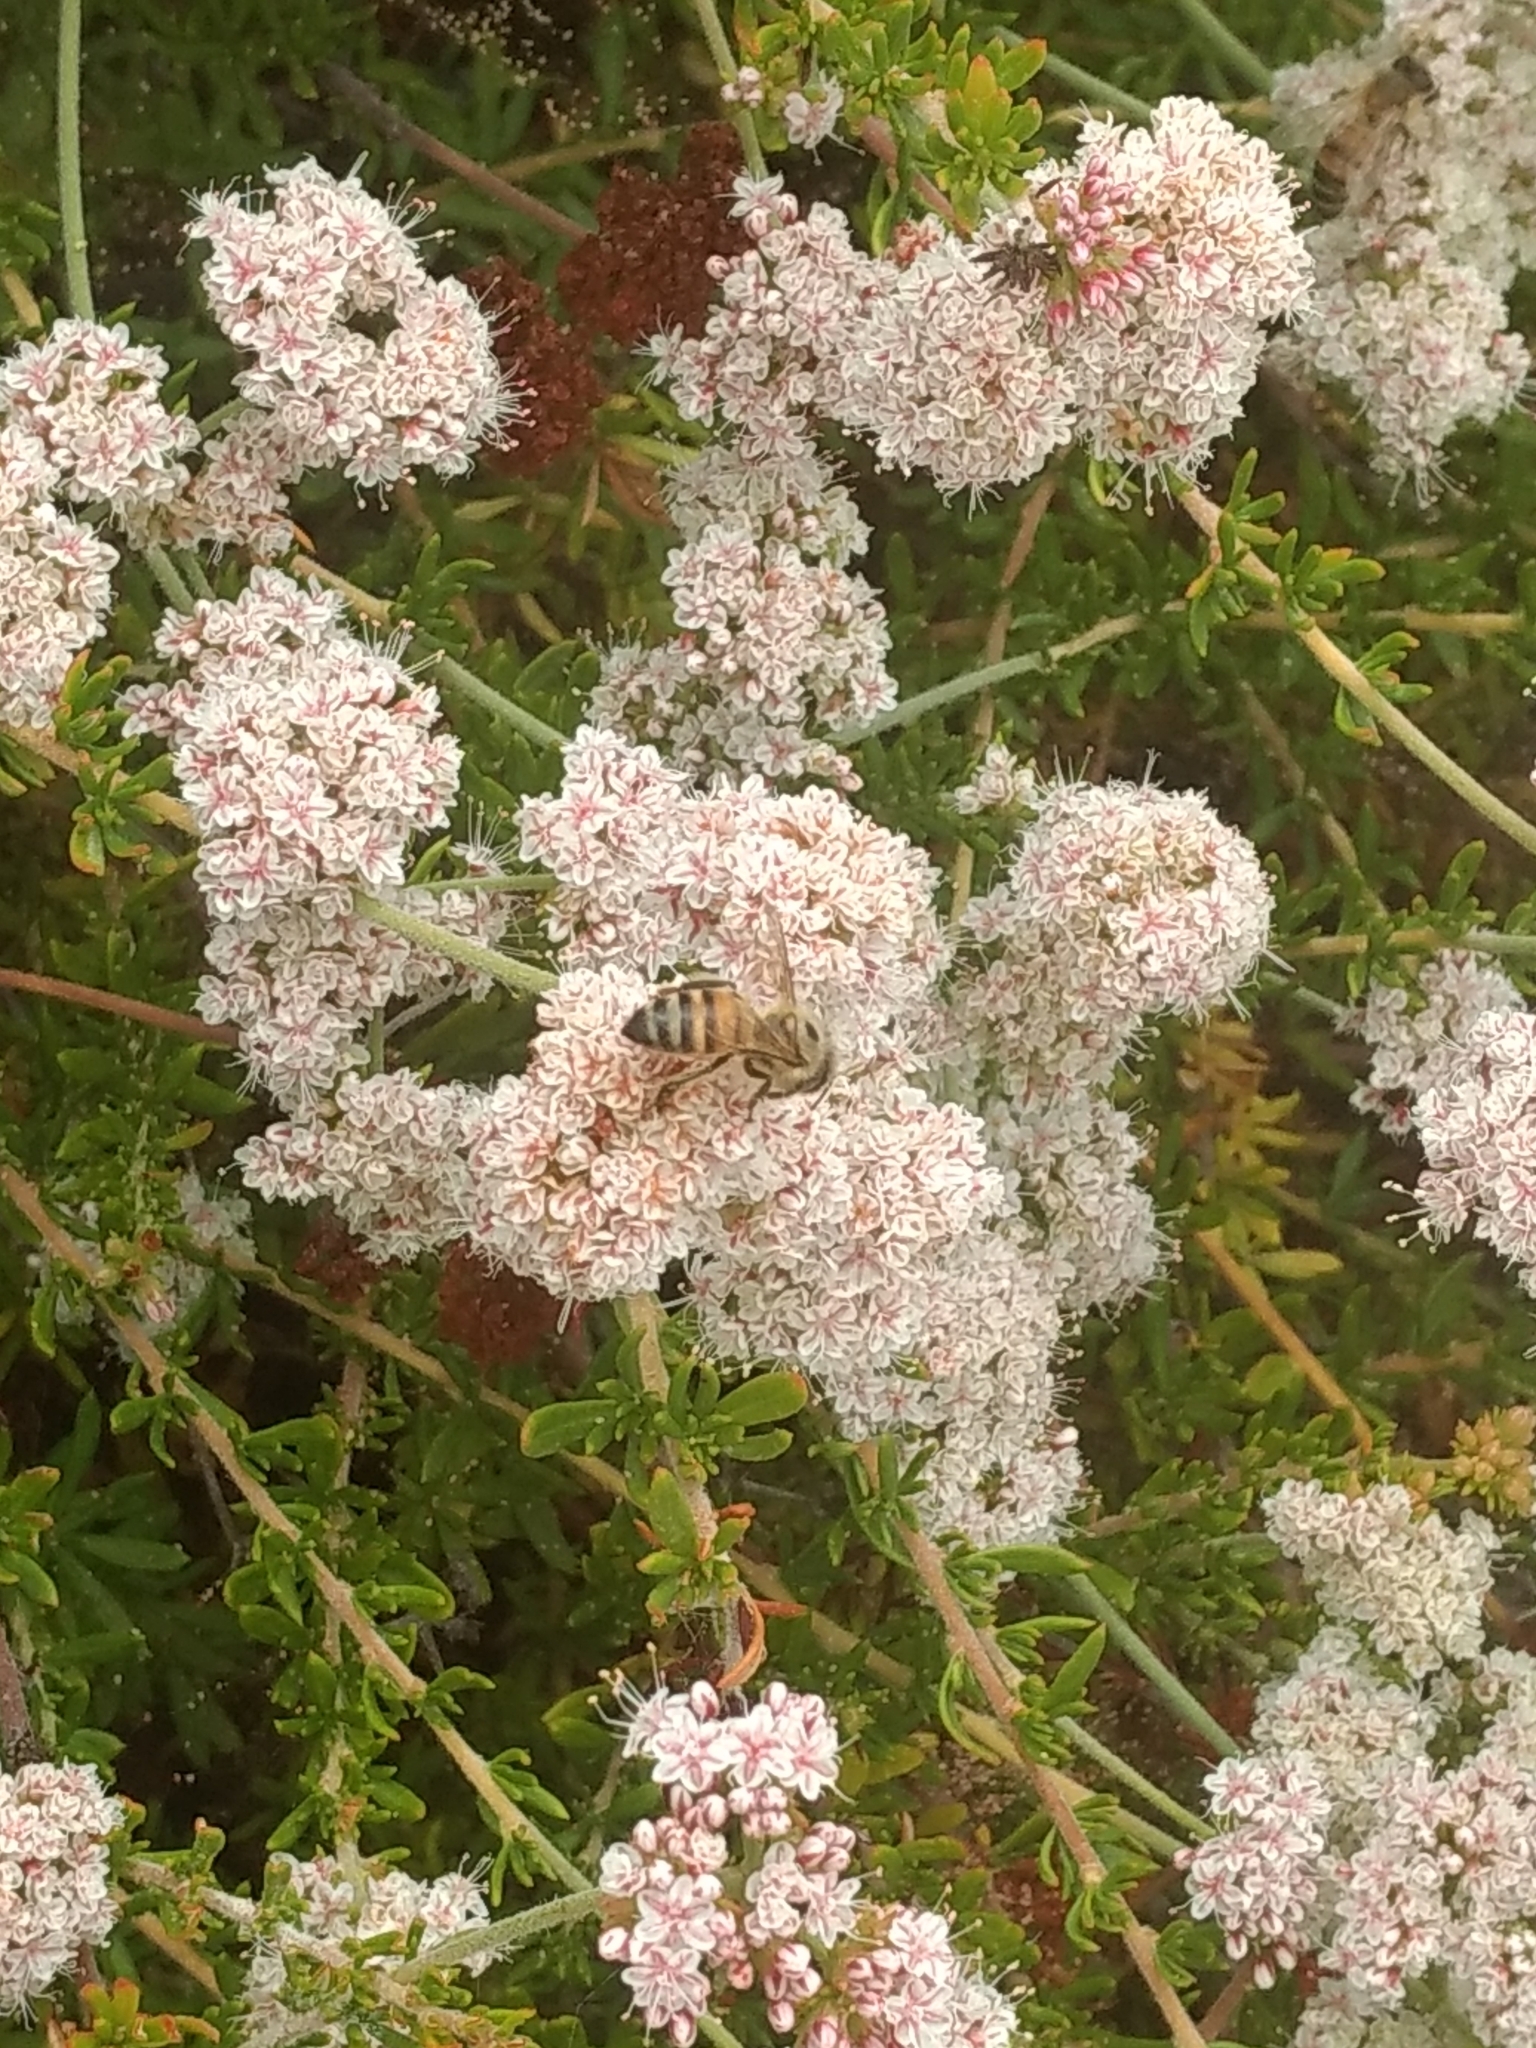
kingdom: Animalia
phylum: Arthropoda
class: Insecta
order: Hymenoptera
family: Apidae
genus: Apis
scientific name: Apis mellifera
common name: Honey bee
